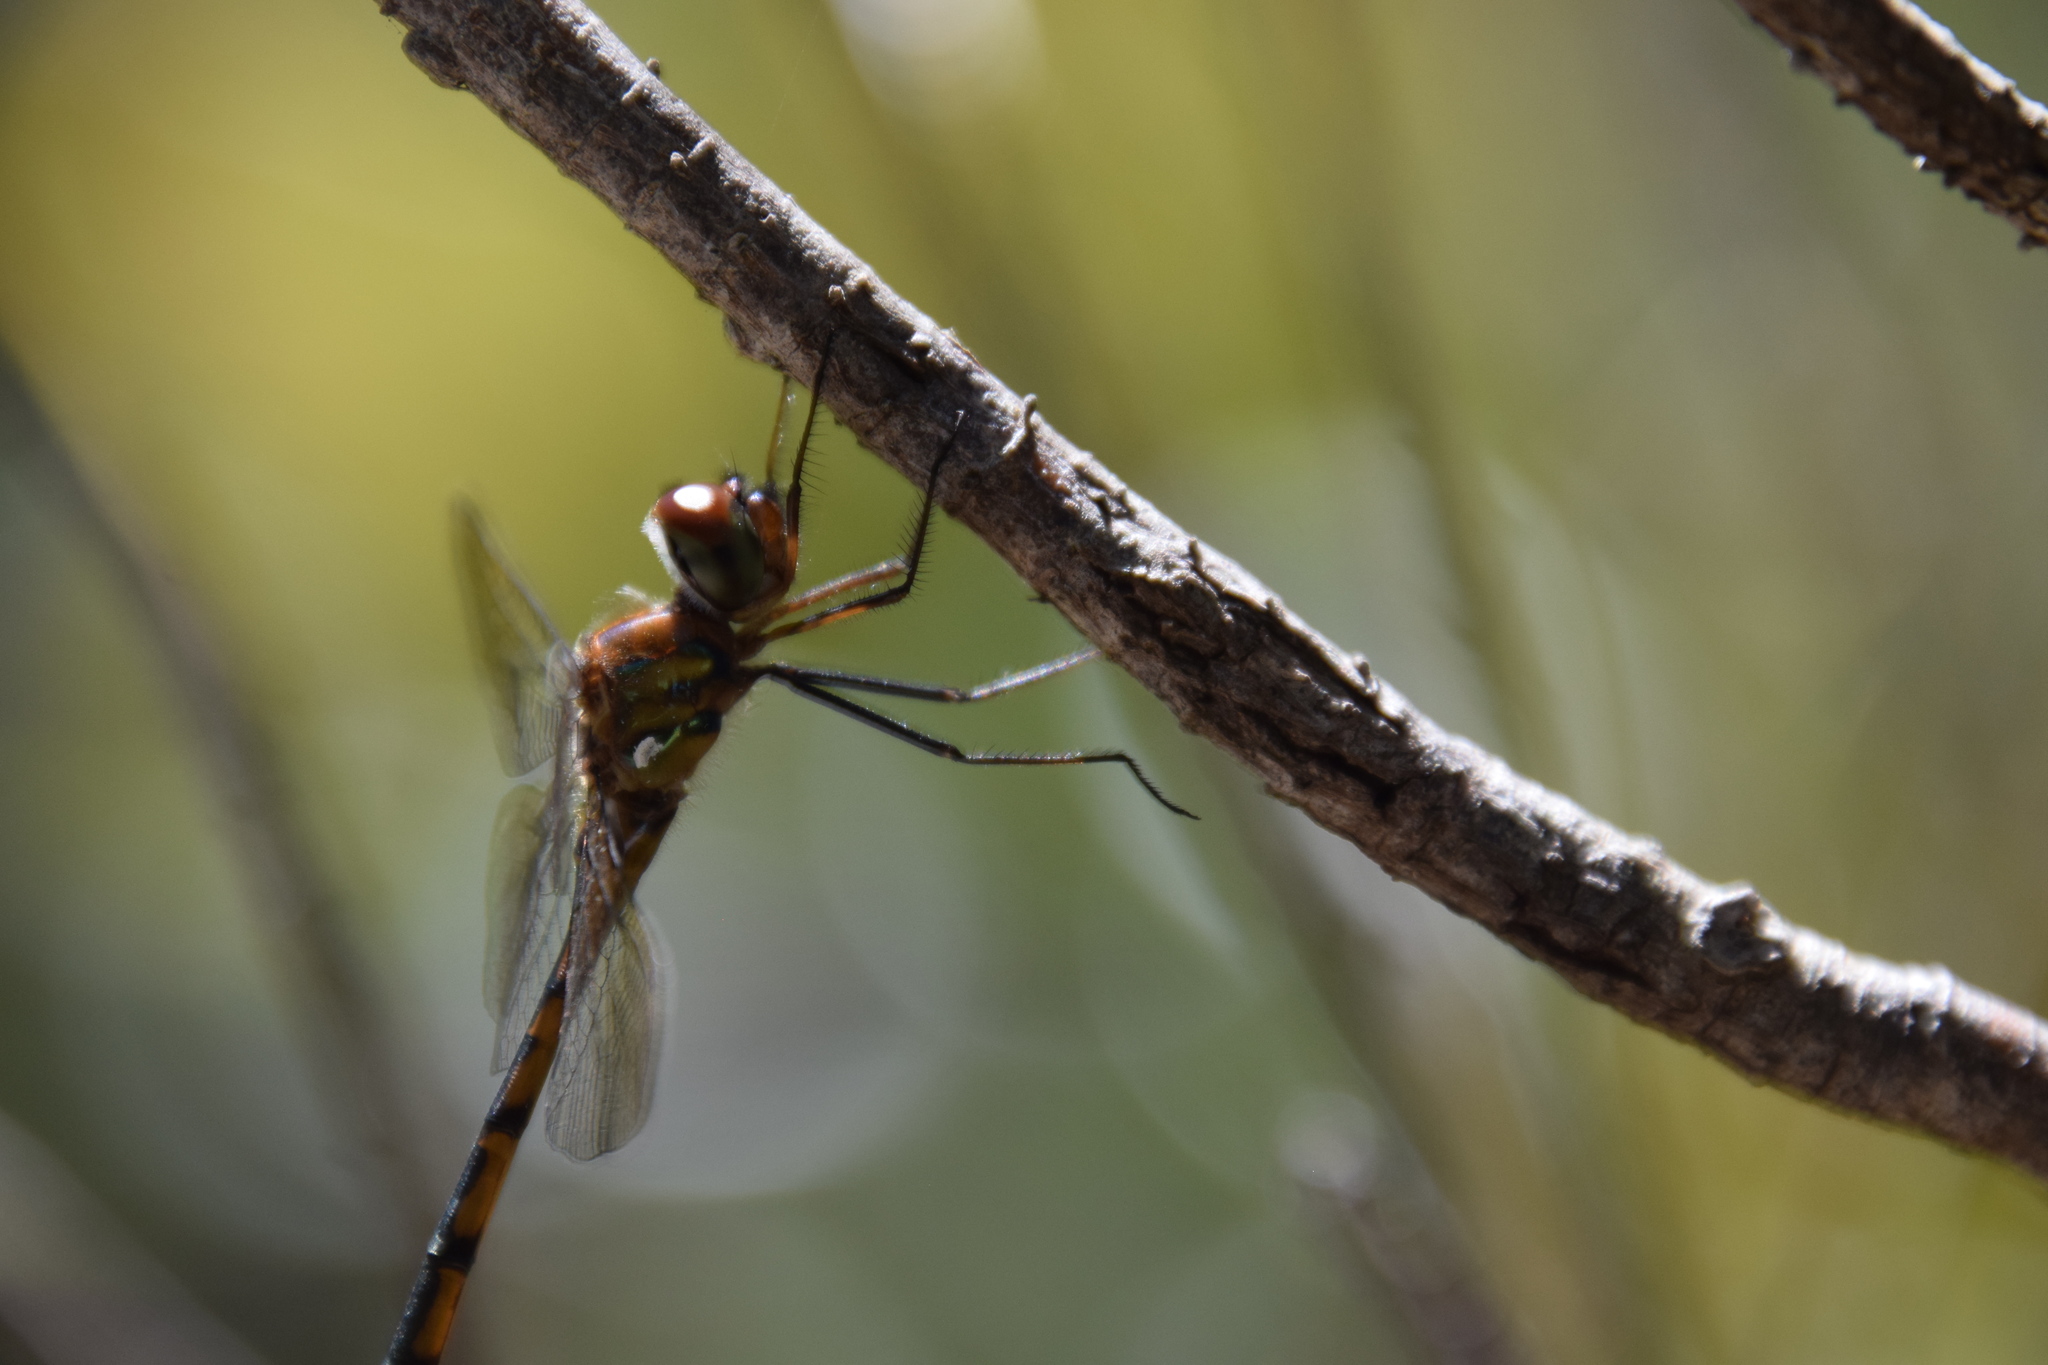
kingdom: Animalia
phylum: Arthropoda
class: Insecta
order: Odonata
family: Corduliidae
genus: Hemicordulia
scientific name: Hemicordulia australiae
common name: Sentry dragonfly
